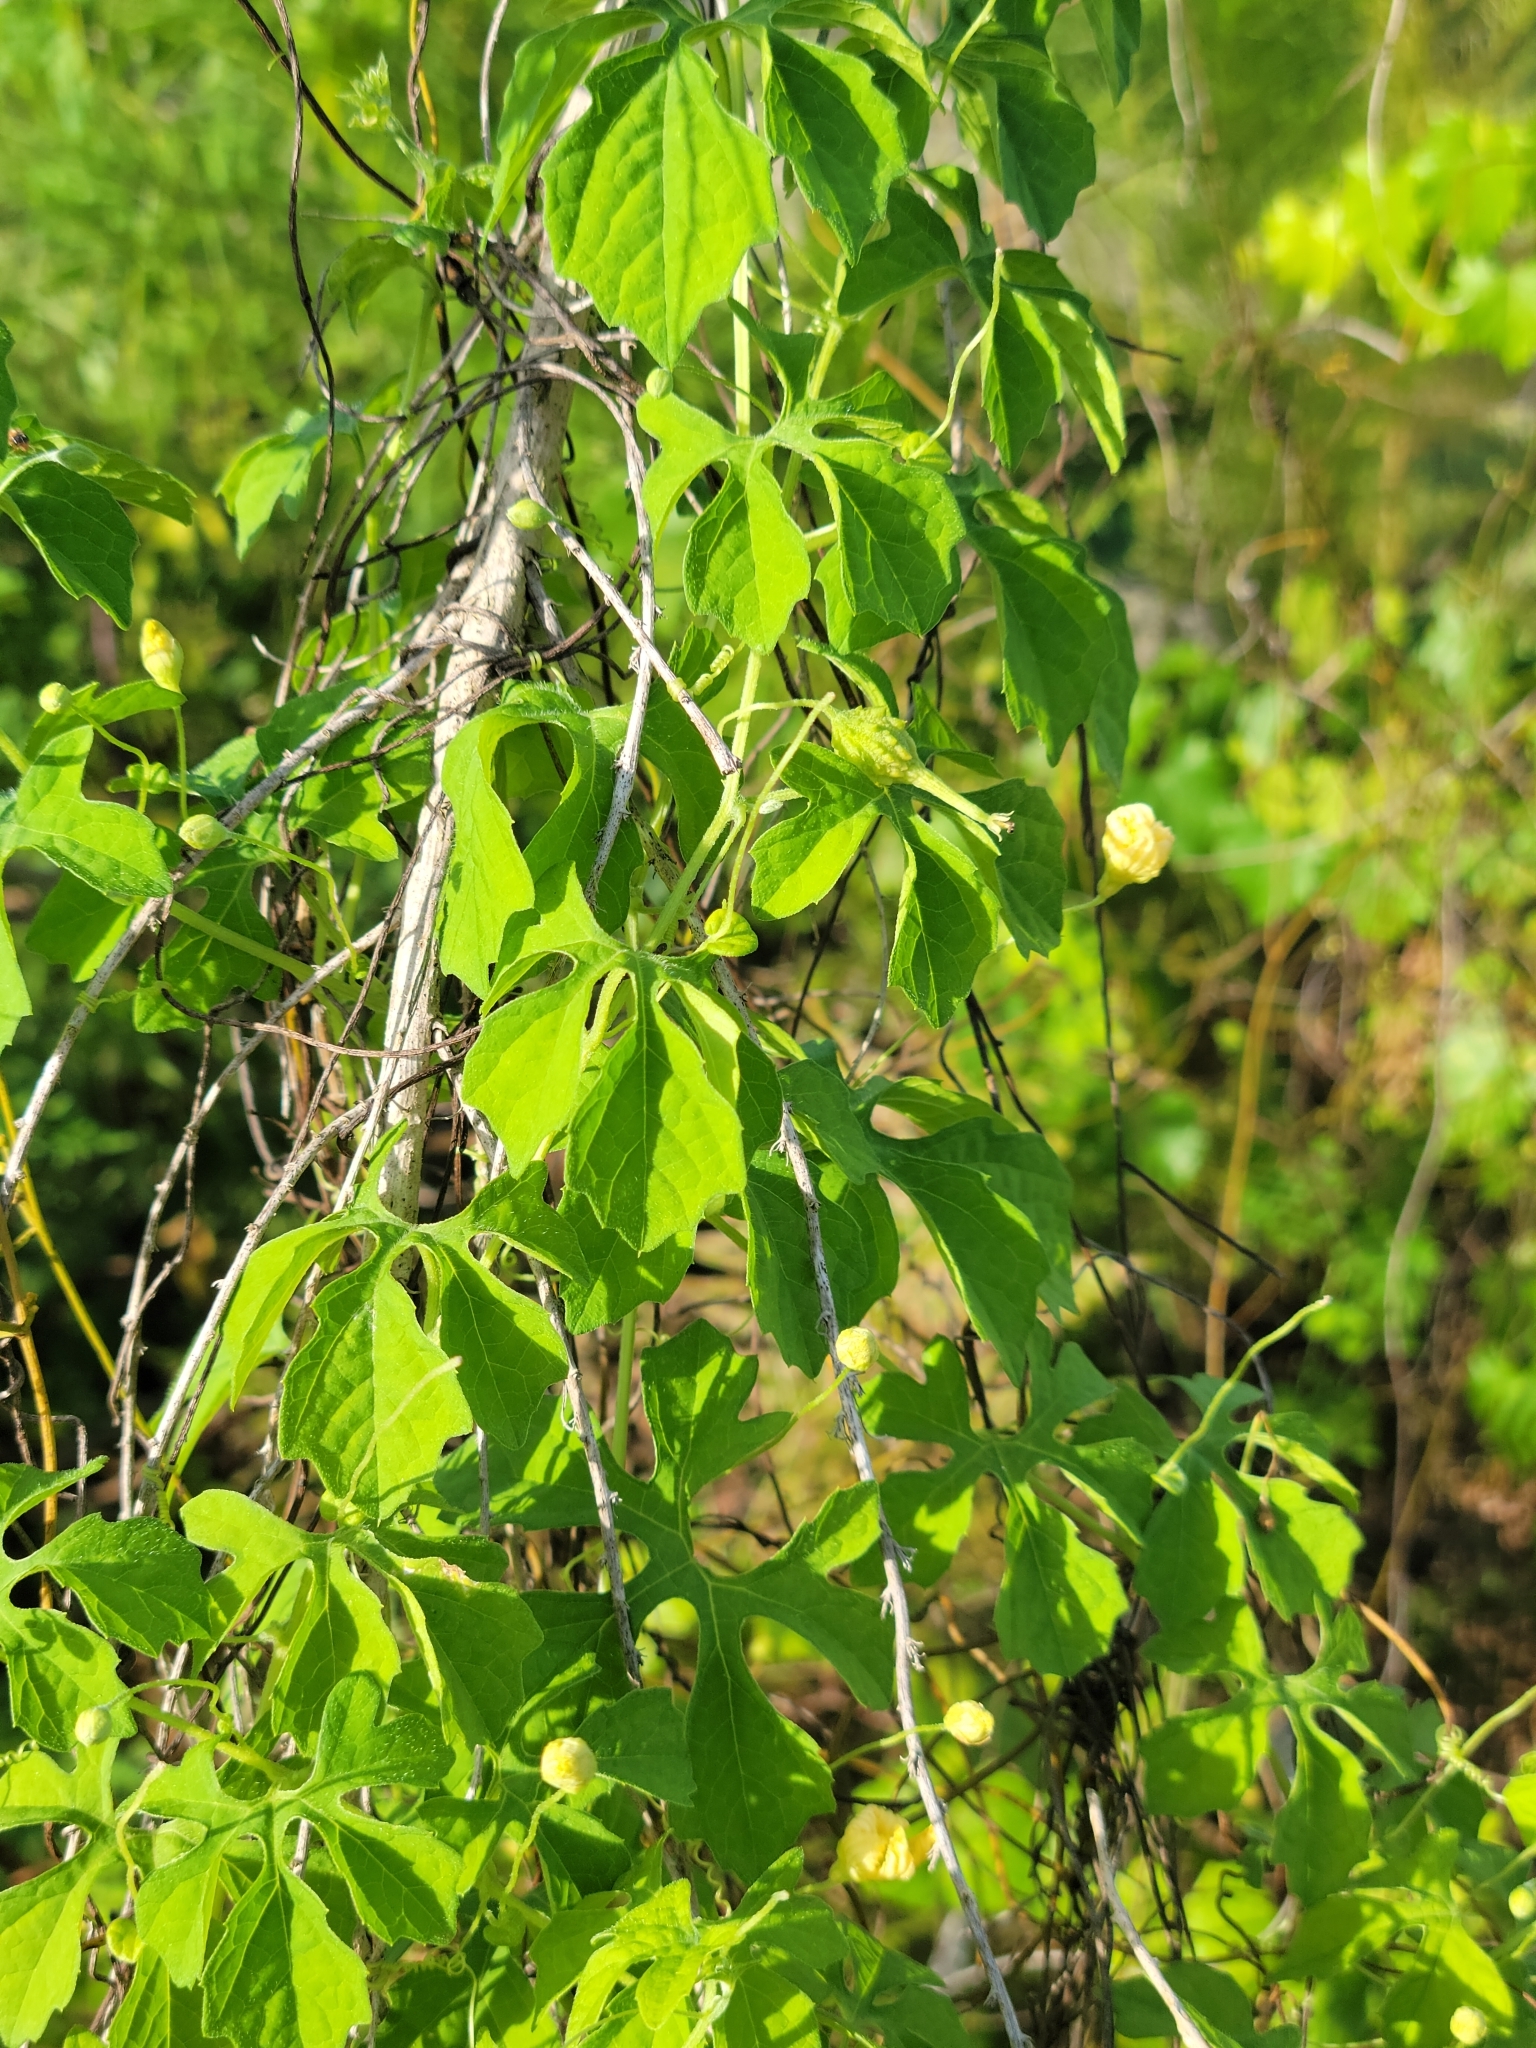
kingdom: Plantae
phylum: Tracheophyta
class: Magnoliopsida
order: Cucurbitales
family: Cucurbitaceae
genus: Momordica
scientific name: Momordica charantia
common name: Balsampear
